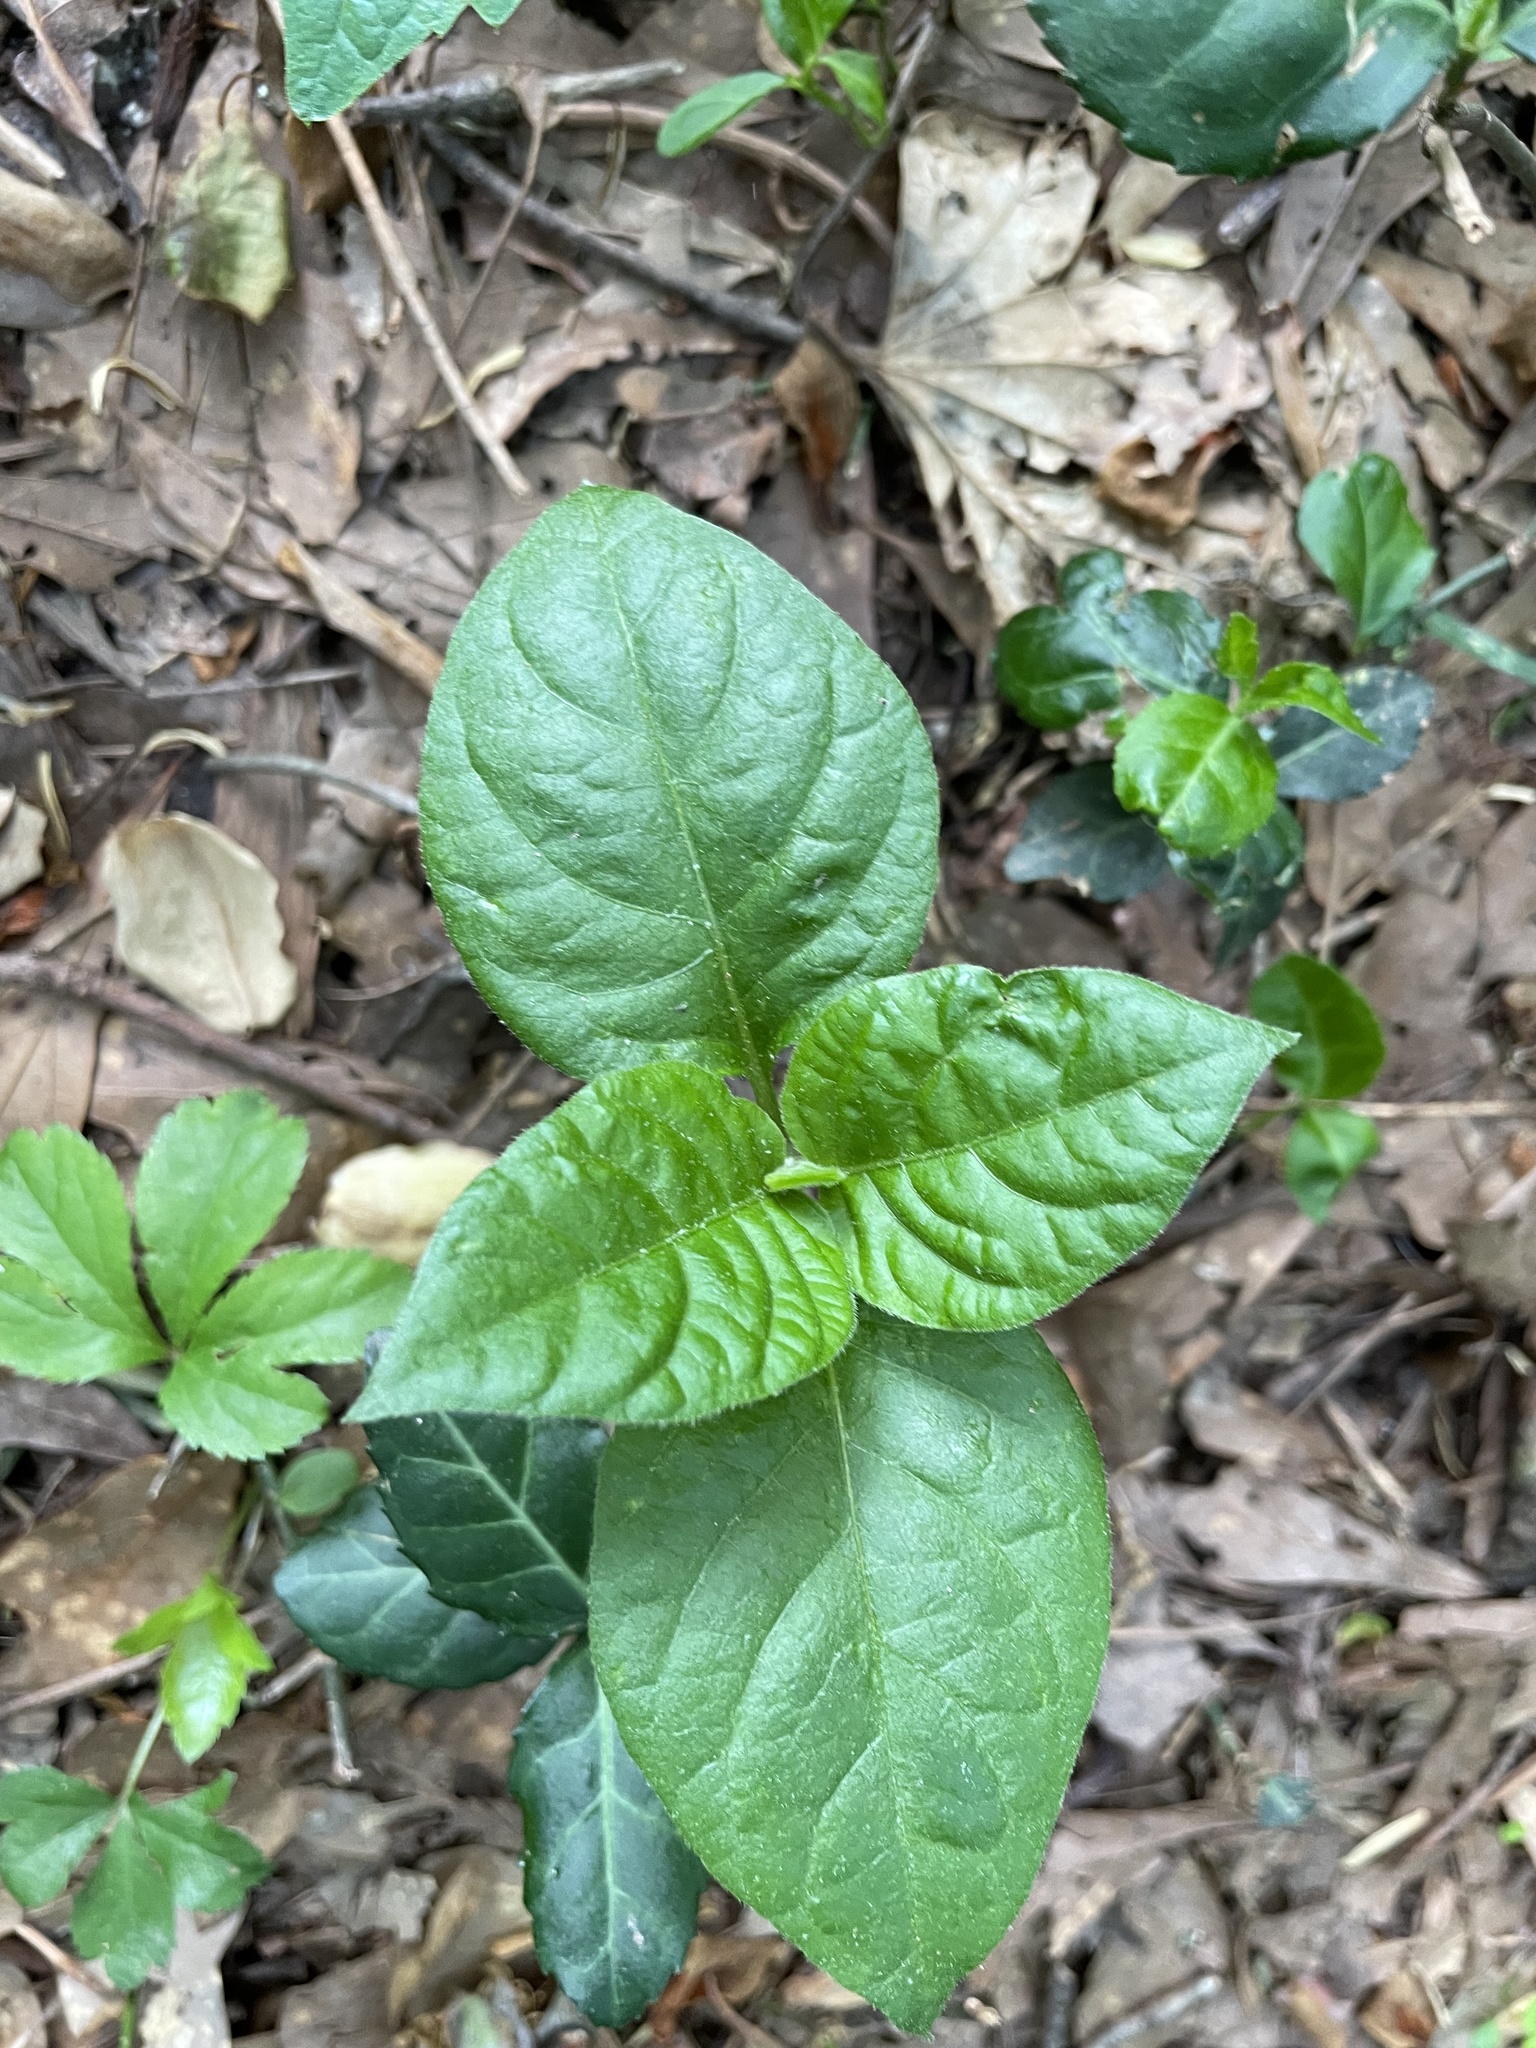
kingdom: Plantae
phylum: Tracheophyta
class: Magnoliopsida
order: Caryophyllales
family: Amaranthaceae
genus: Achyranthes
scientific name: Achyranthes bidentata
